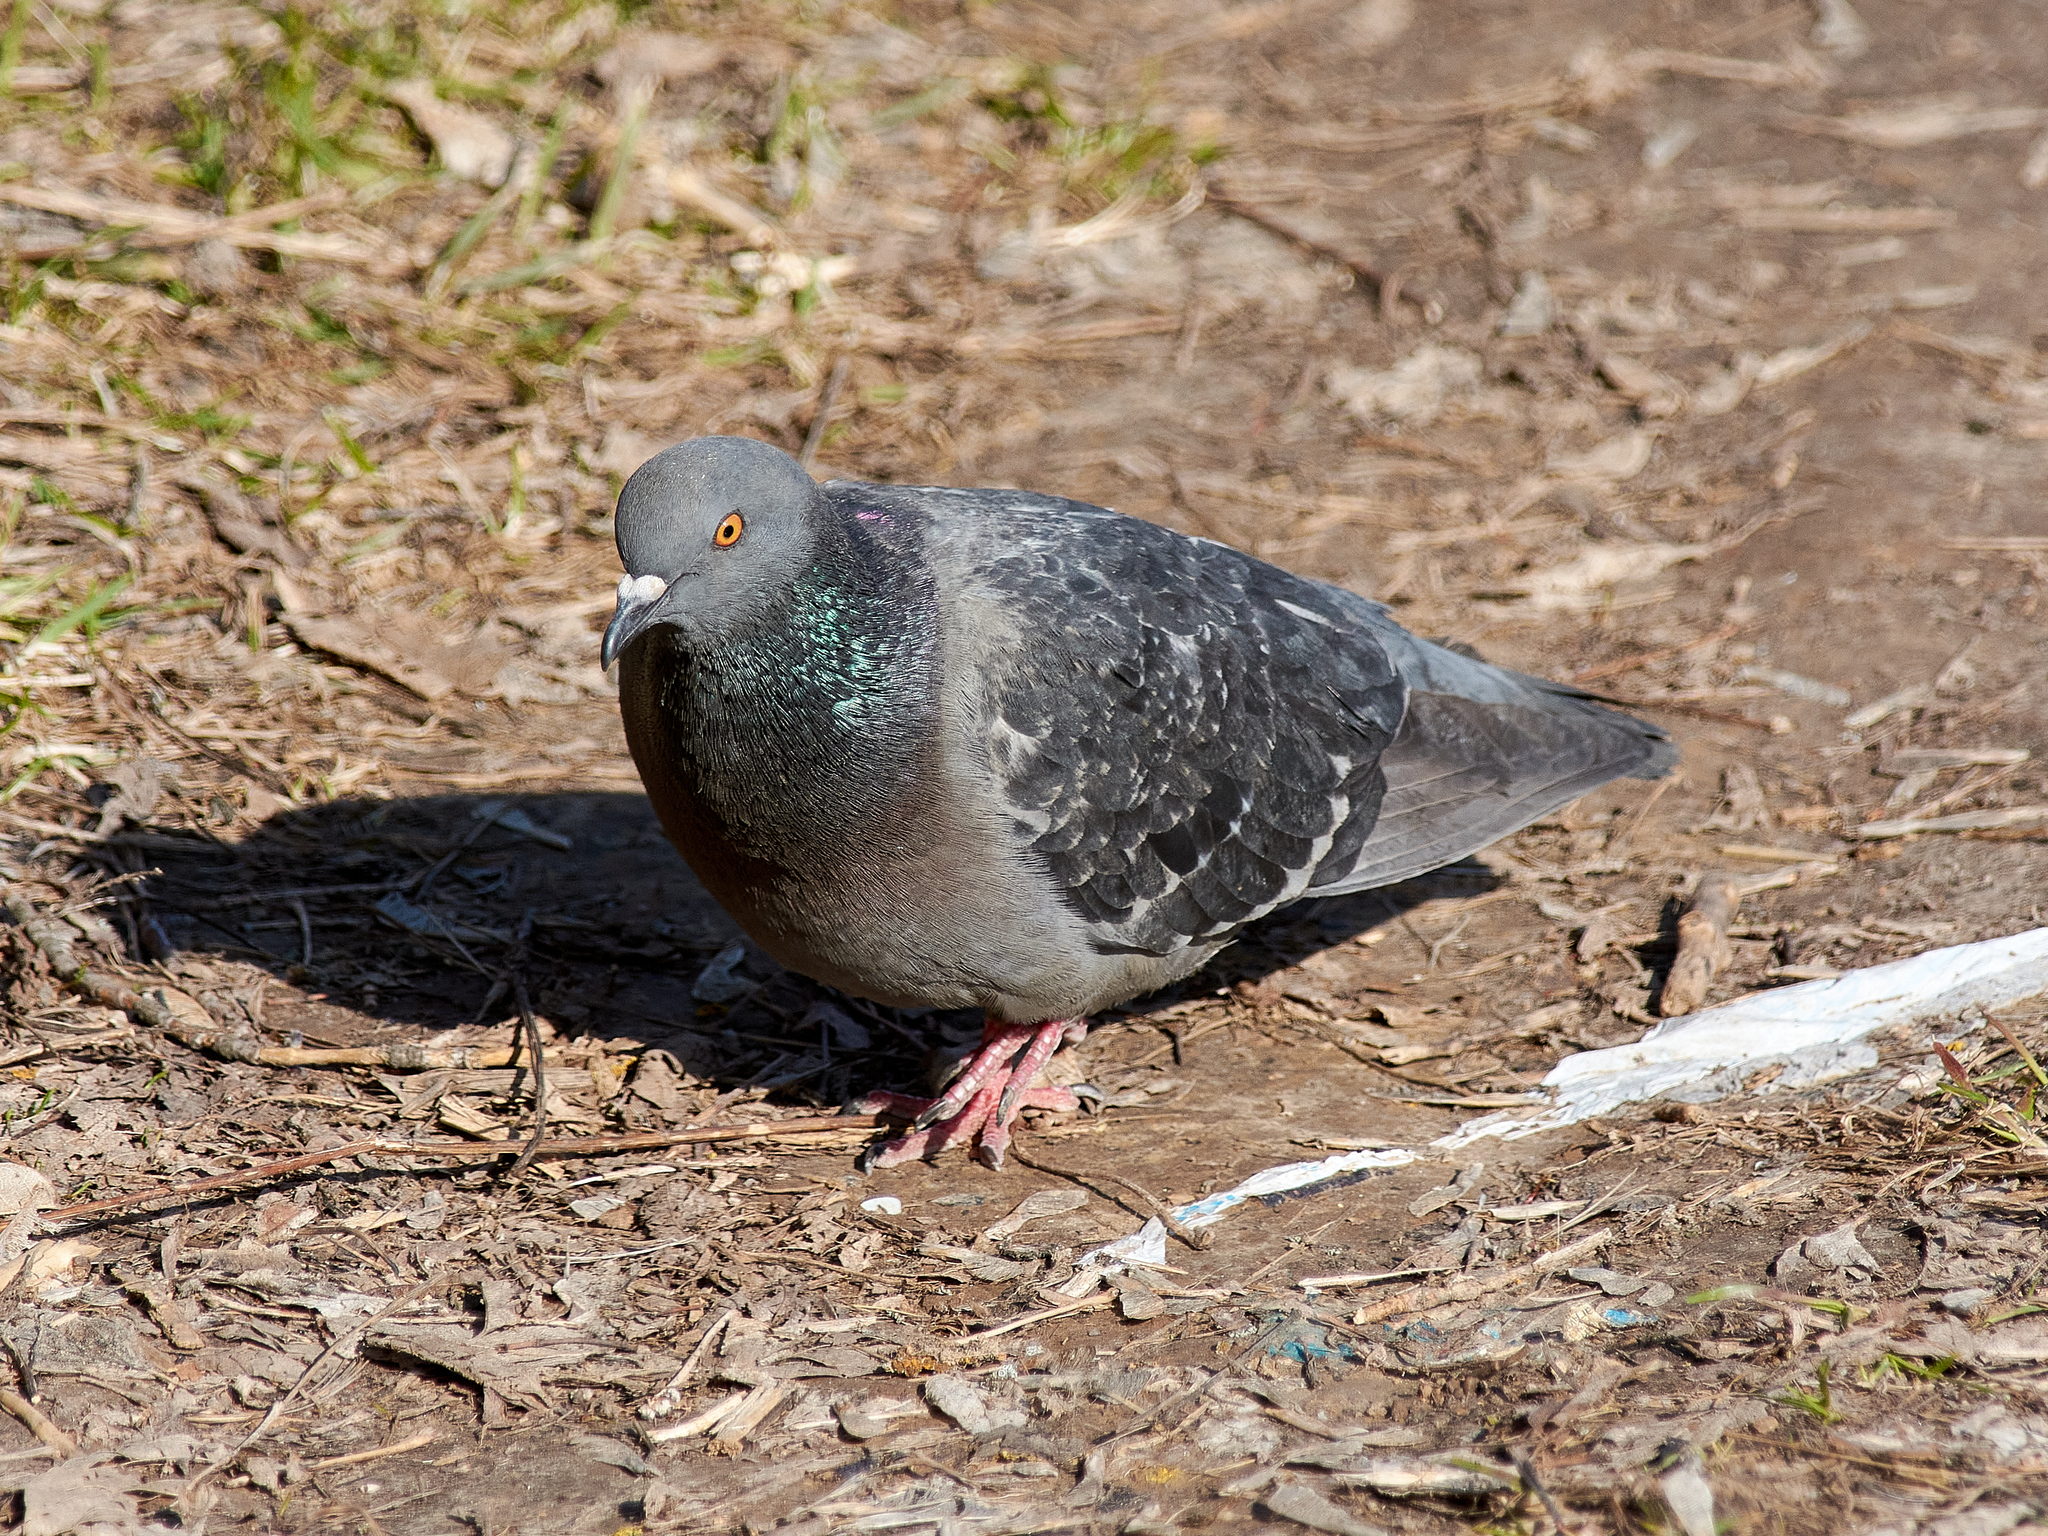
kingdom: Animalia
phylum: Chordata
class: Aves
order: Columbiformes
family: Columbidae
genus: Columba
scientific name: Columba livia
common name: Rock pigeon
